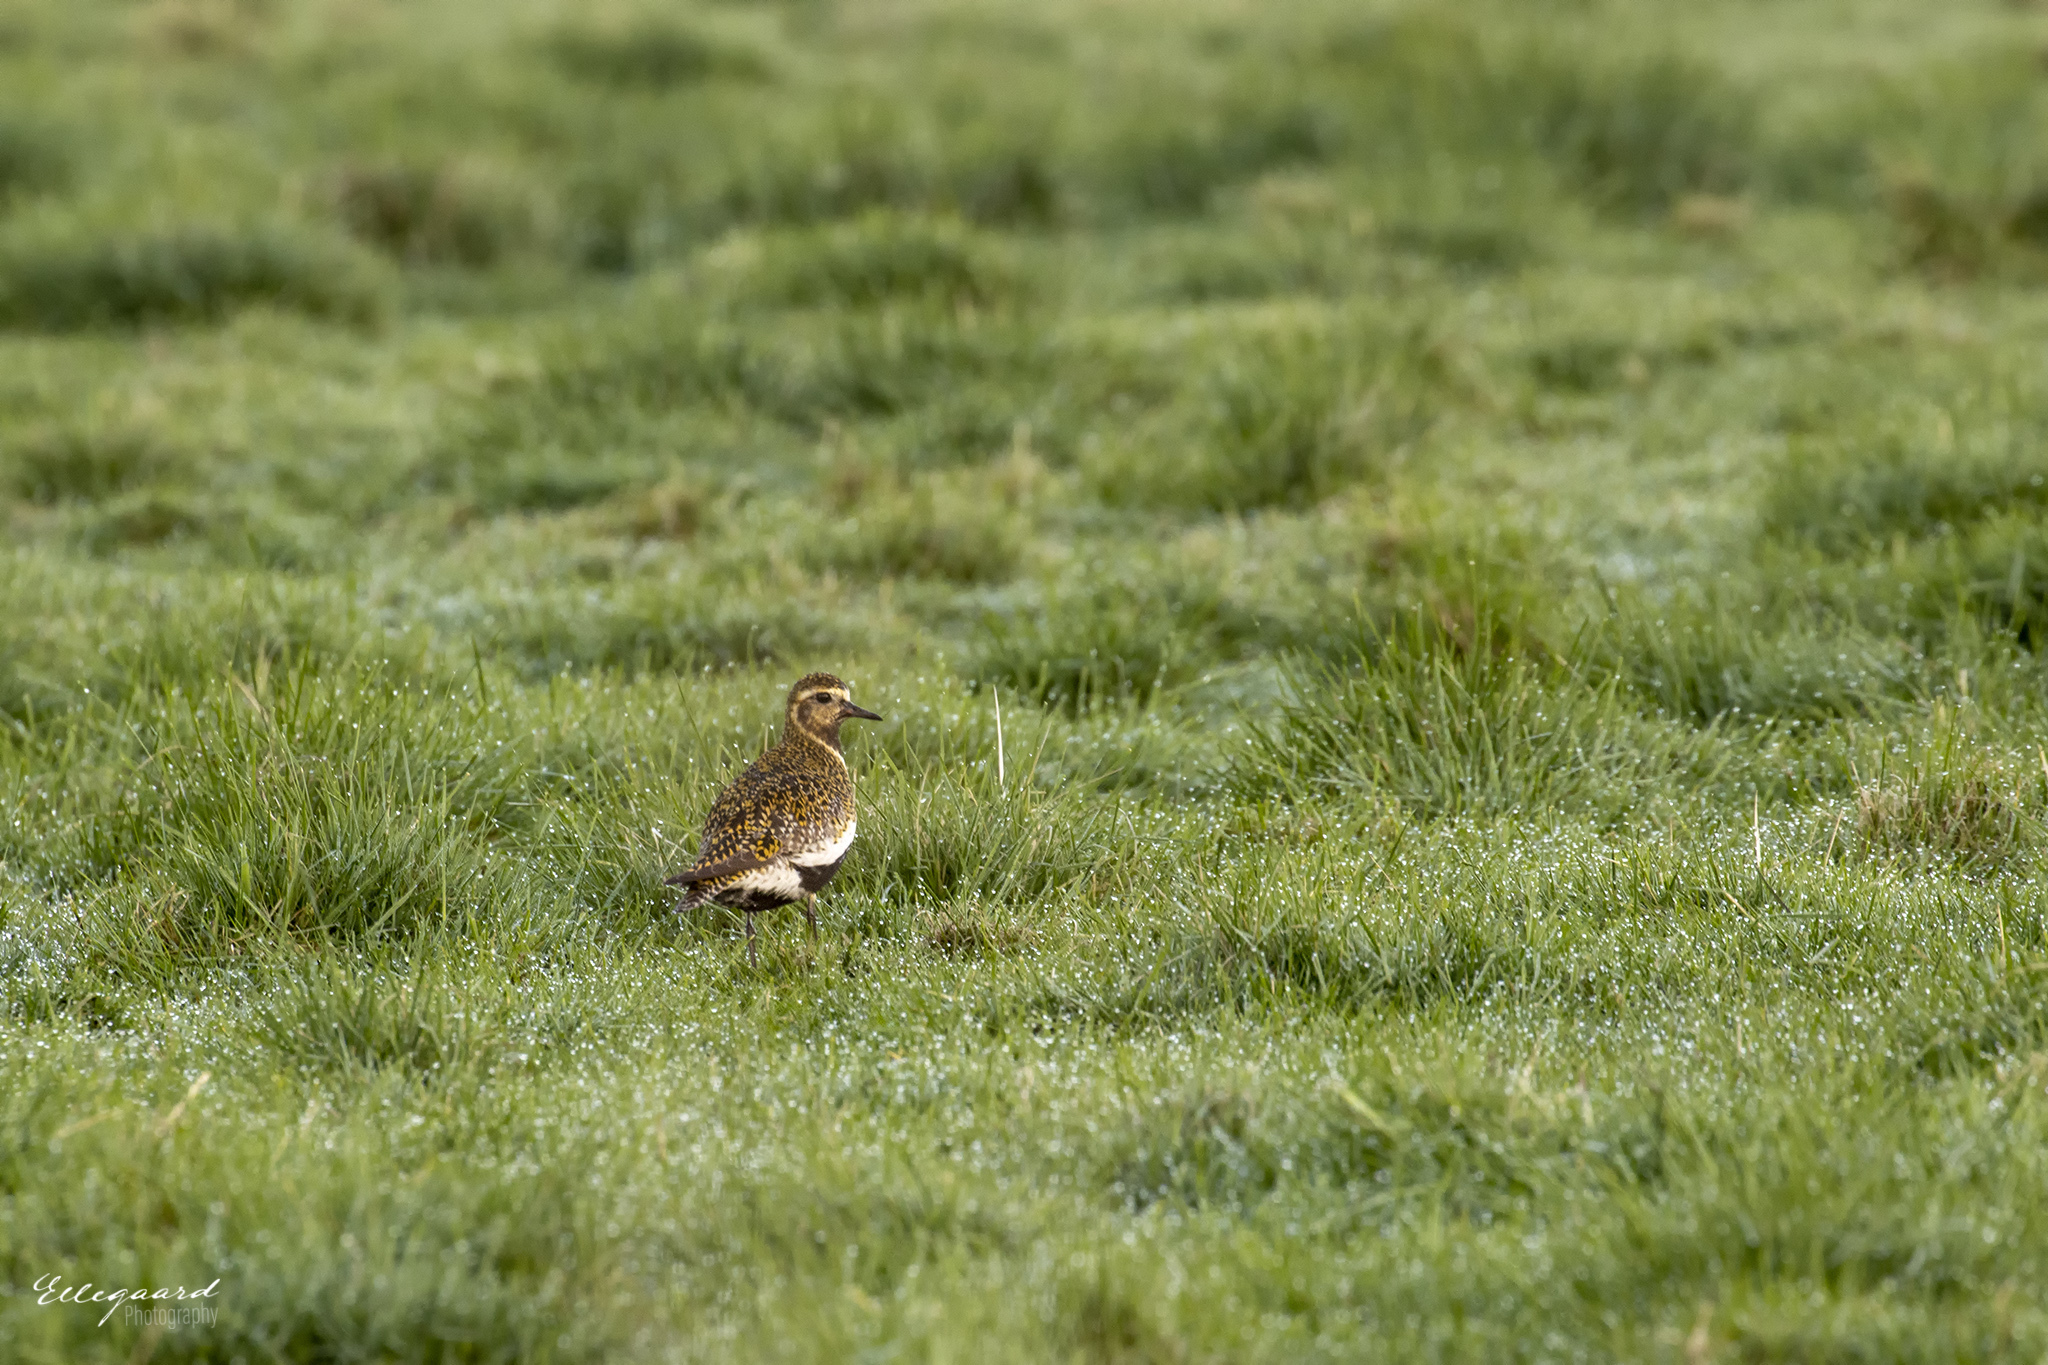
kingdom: Animalia
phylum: Chordata
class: Aves
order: Charadriiformes
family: Charadriidae
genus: Pluvialis
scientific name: Pluvialis apricaria
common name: European golden plover
